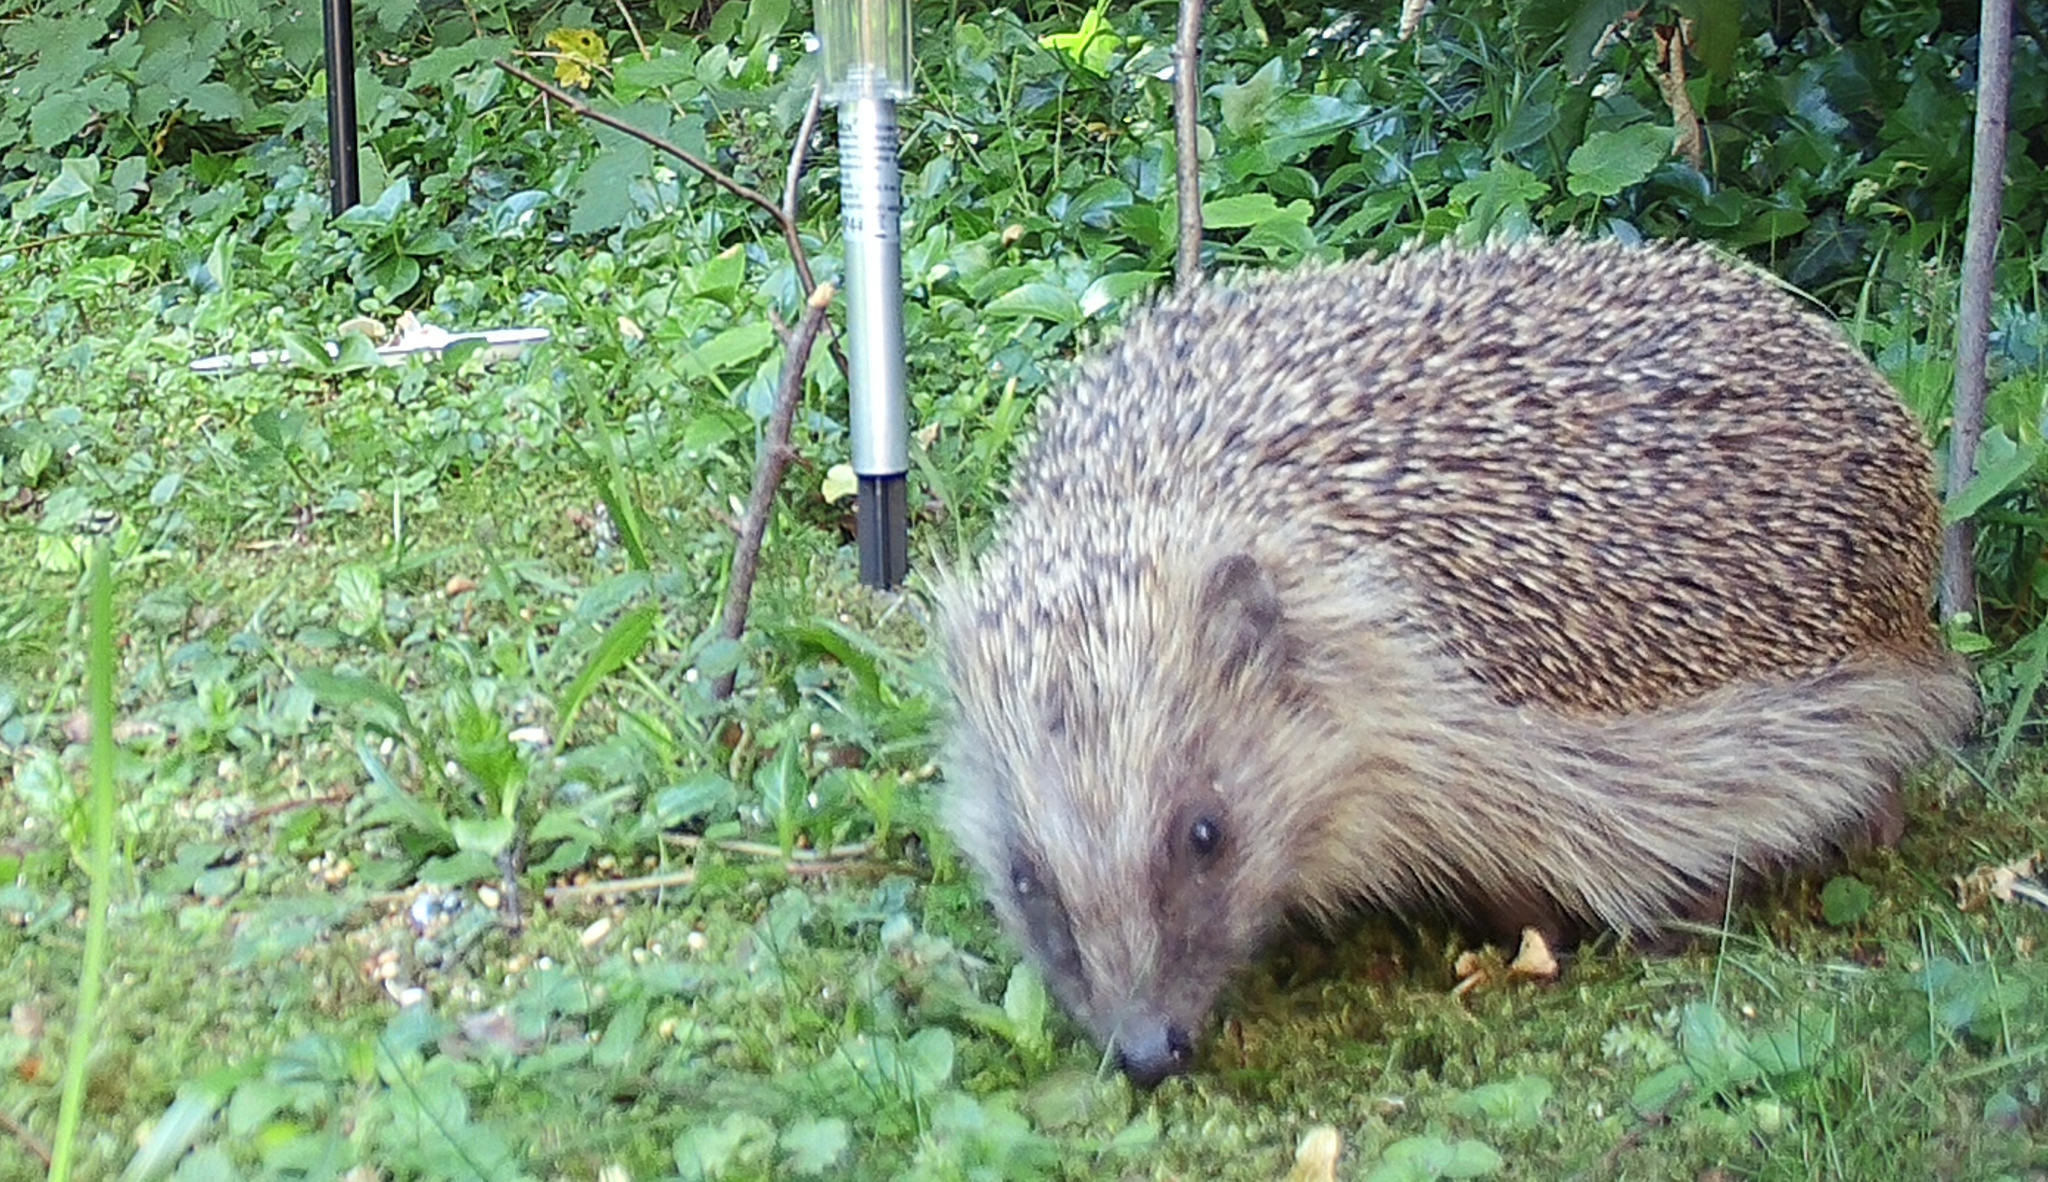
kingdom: Animalia
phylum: Chordata
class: Mammalia
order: Erinaceomorpha
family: Erinaceidae
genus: Erinaceus
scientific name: Erinaceus europaeus
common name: West european hedgehog
